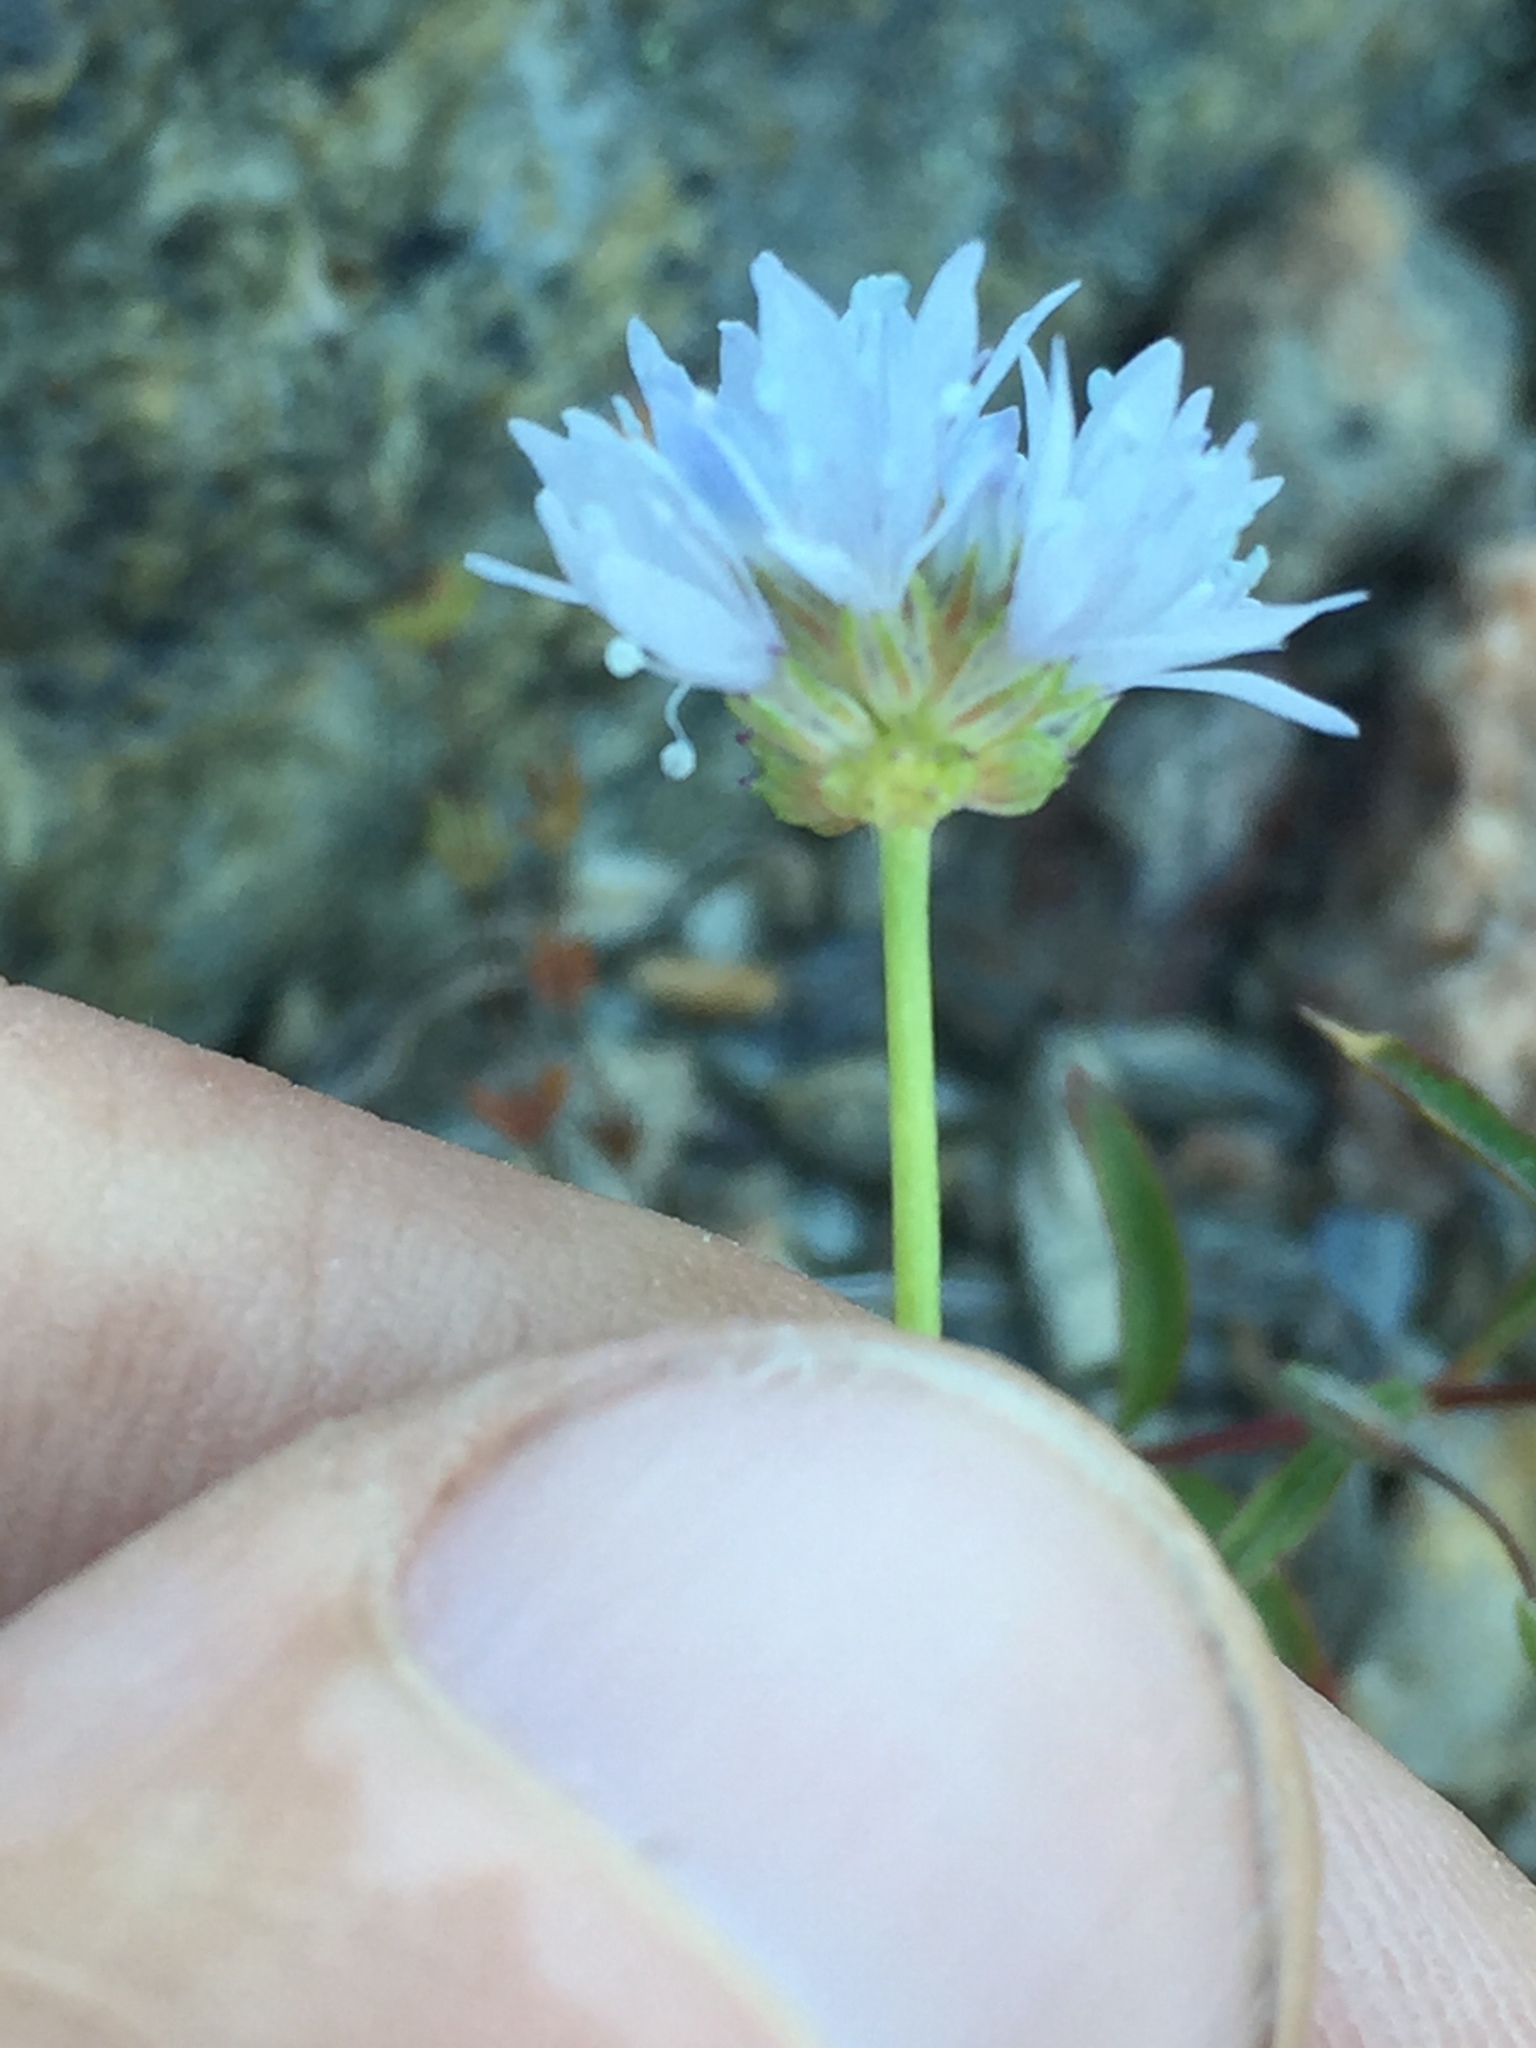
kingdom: Plantae
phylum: Tracheophyta
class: Magnoliopsida
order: Ericales
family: Polemoniaceae
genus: Gilia
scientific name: Gilia capitata
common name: Bluehead gilia
